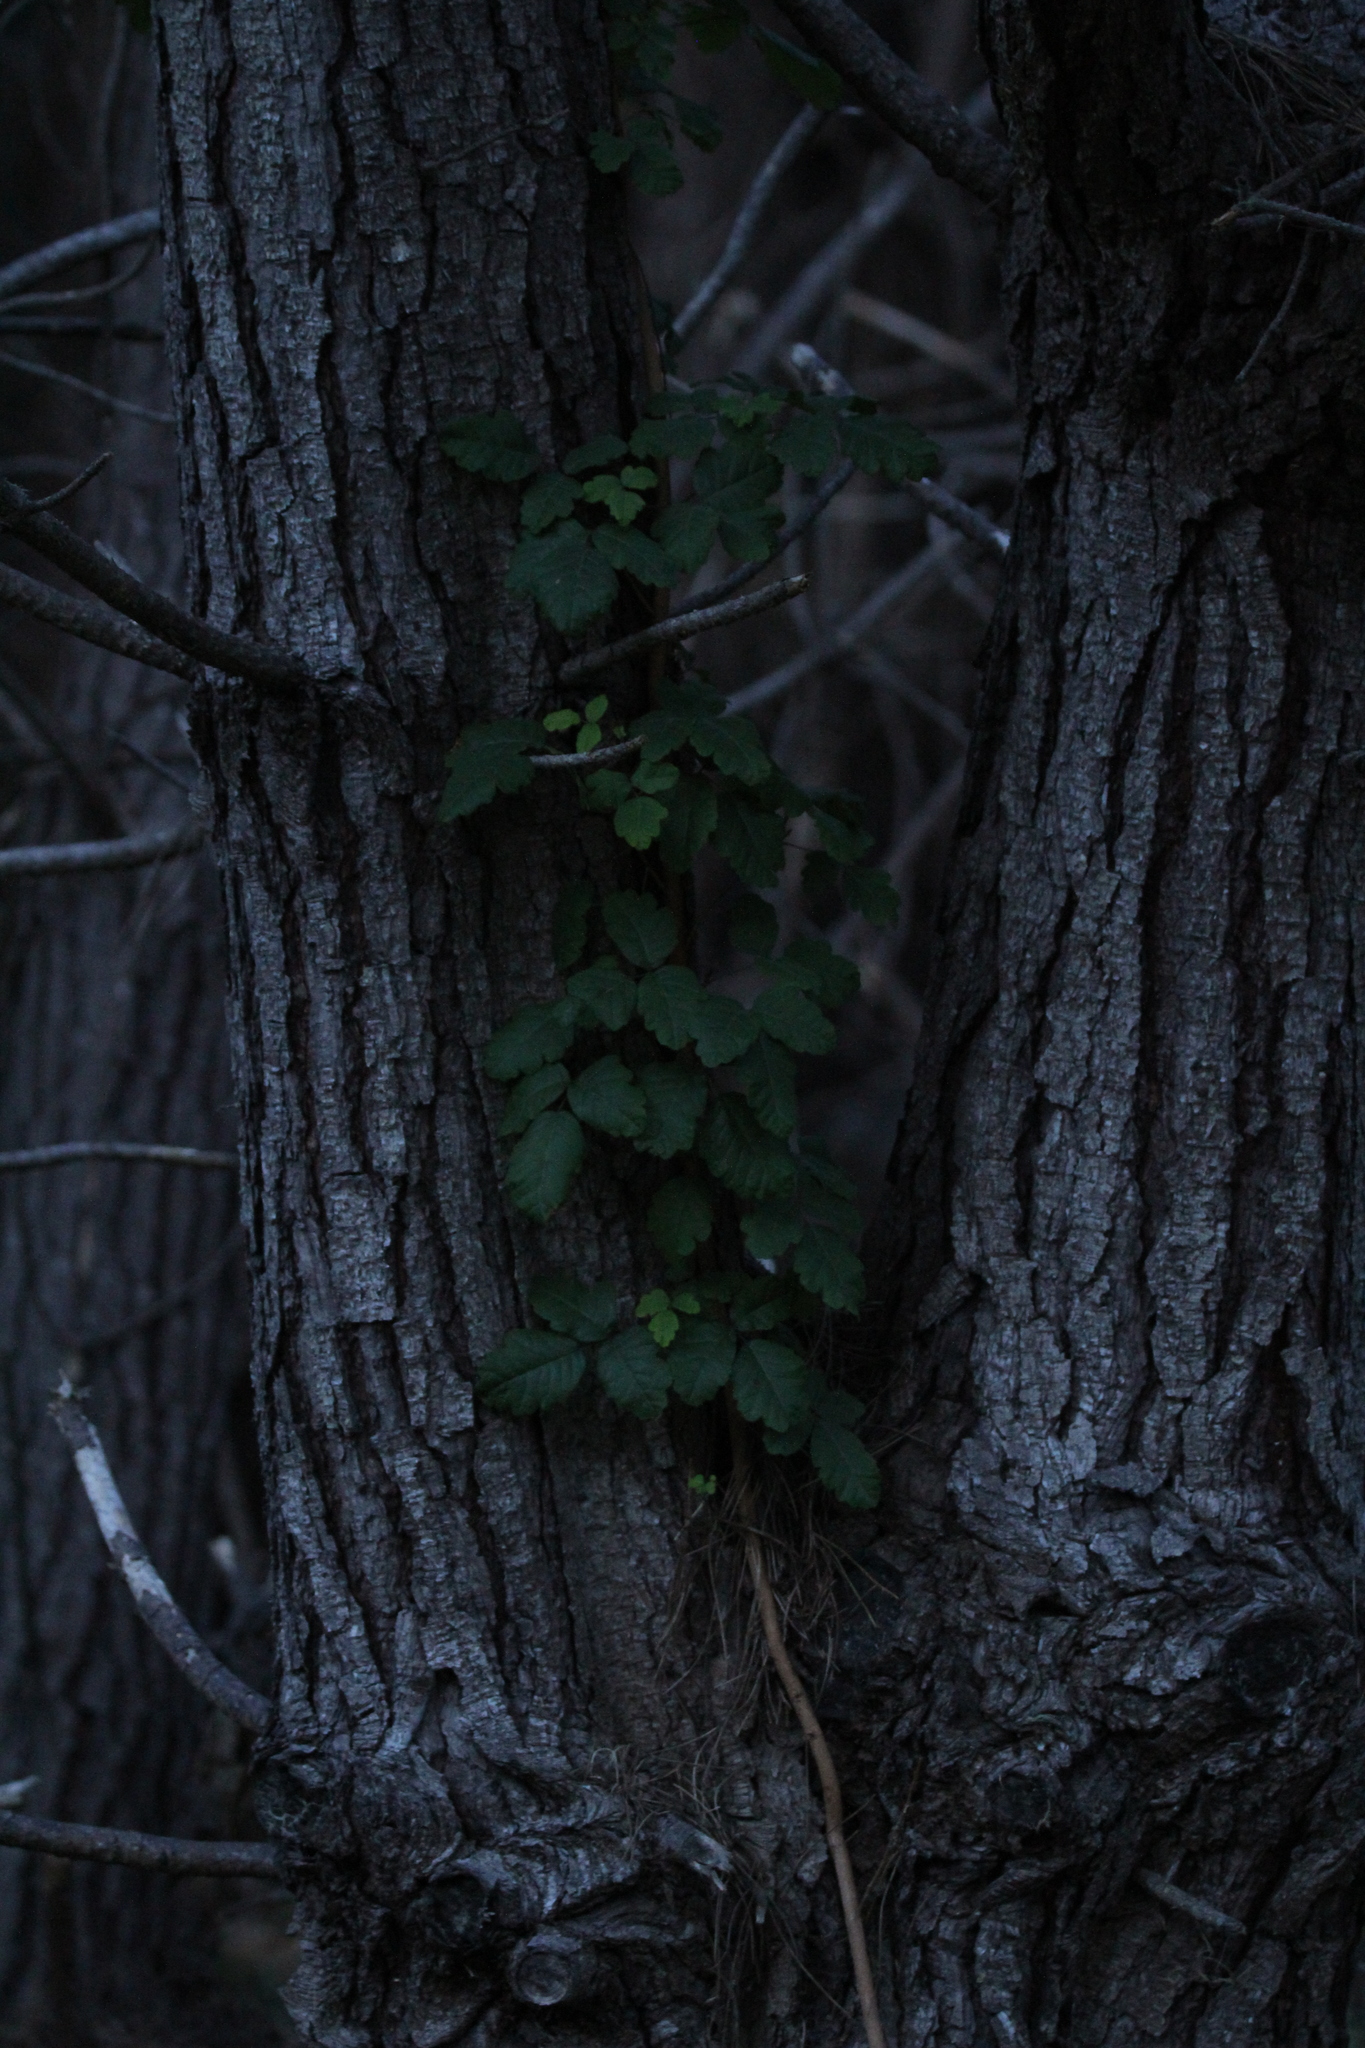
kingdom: Plantae
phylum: Tracheophyta
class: Magnoliopsida
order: Sapindales
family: Anacardiaceae
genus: Toxicodendron
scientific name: Toxicodendron diversilobum
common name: Pacific poison-oak
